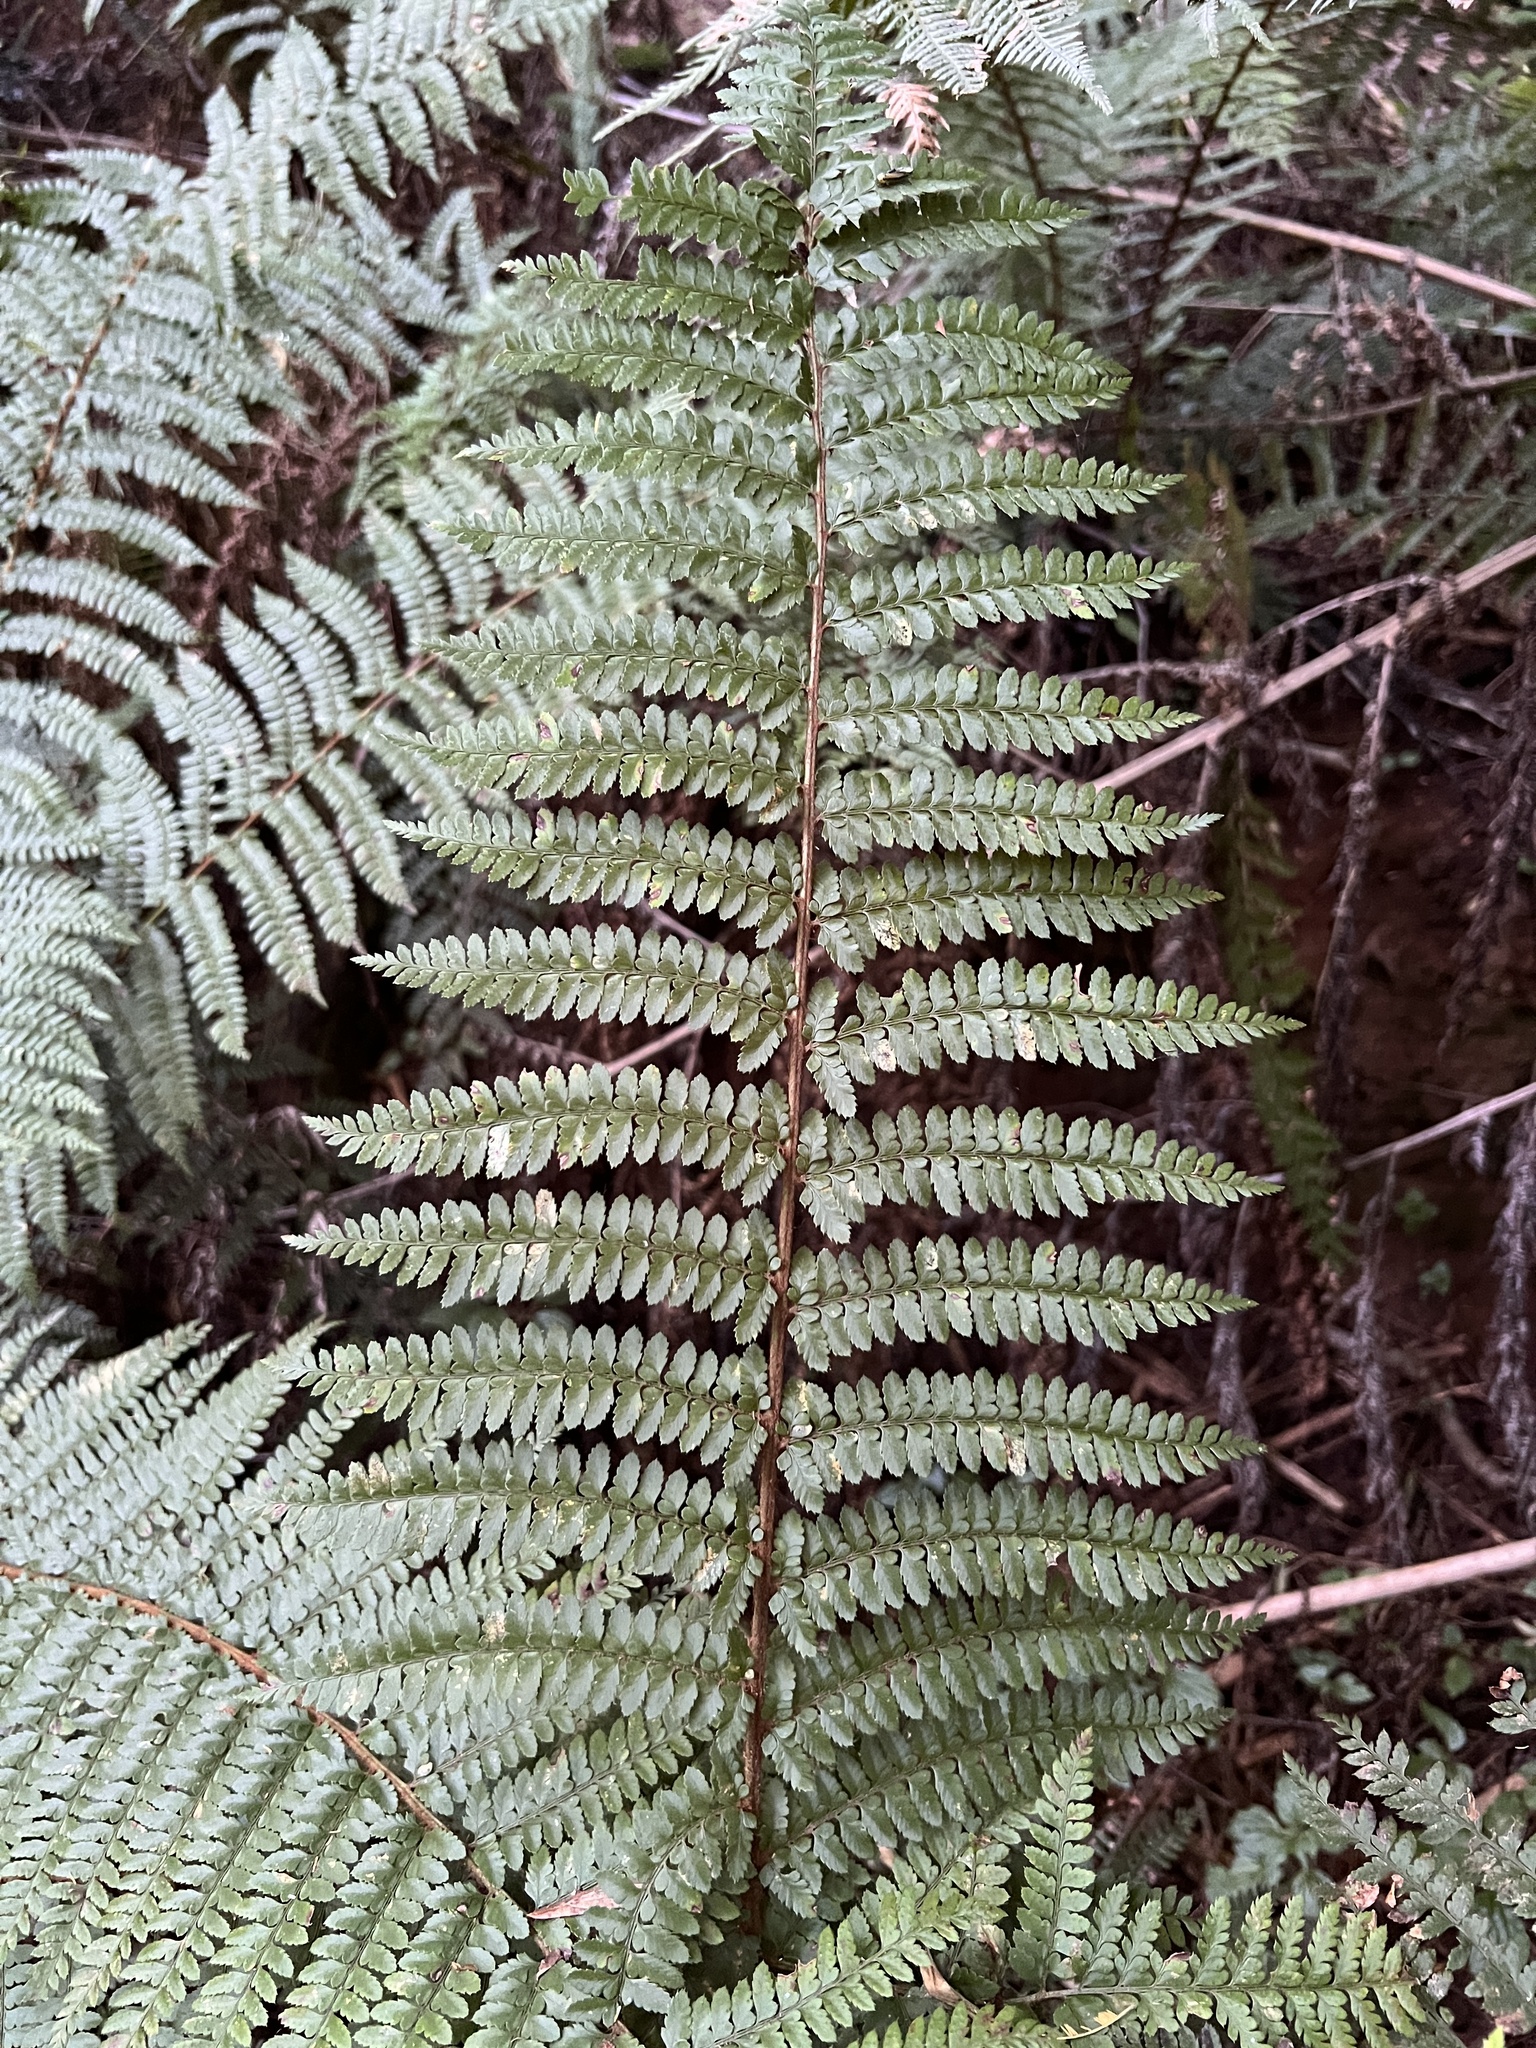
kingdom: Plantae
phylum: Tracheophyta
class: Polypodiopsida
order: Polypodiales
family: Dryopteridaceae
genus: Polystichum
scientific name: Polystichum proliferum
